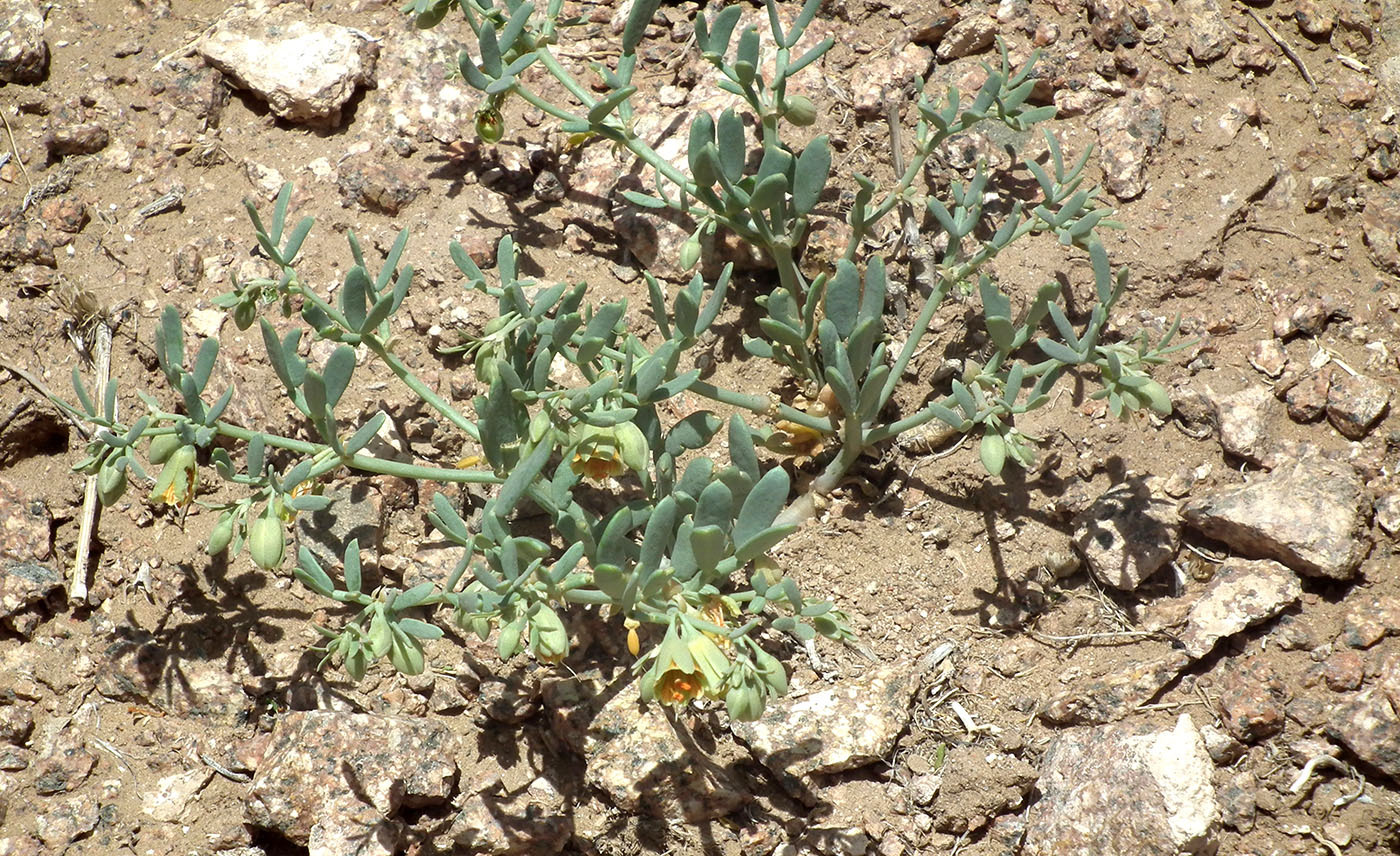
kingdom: Plantae
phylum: Tracheophyta
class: Magnoliopsida
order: Zygophyllales
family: Zygophyllaceae
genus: Zygophyllum
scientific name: Zygophyllum pterocarpum
